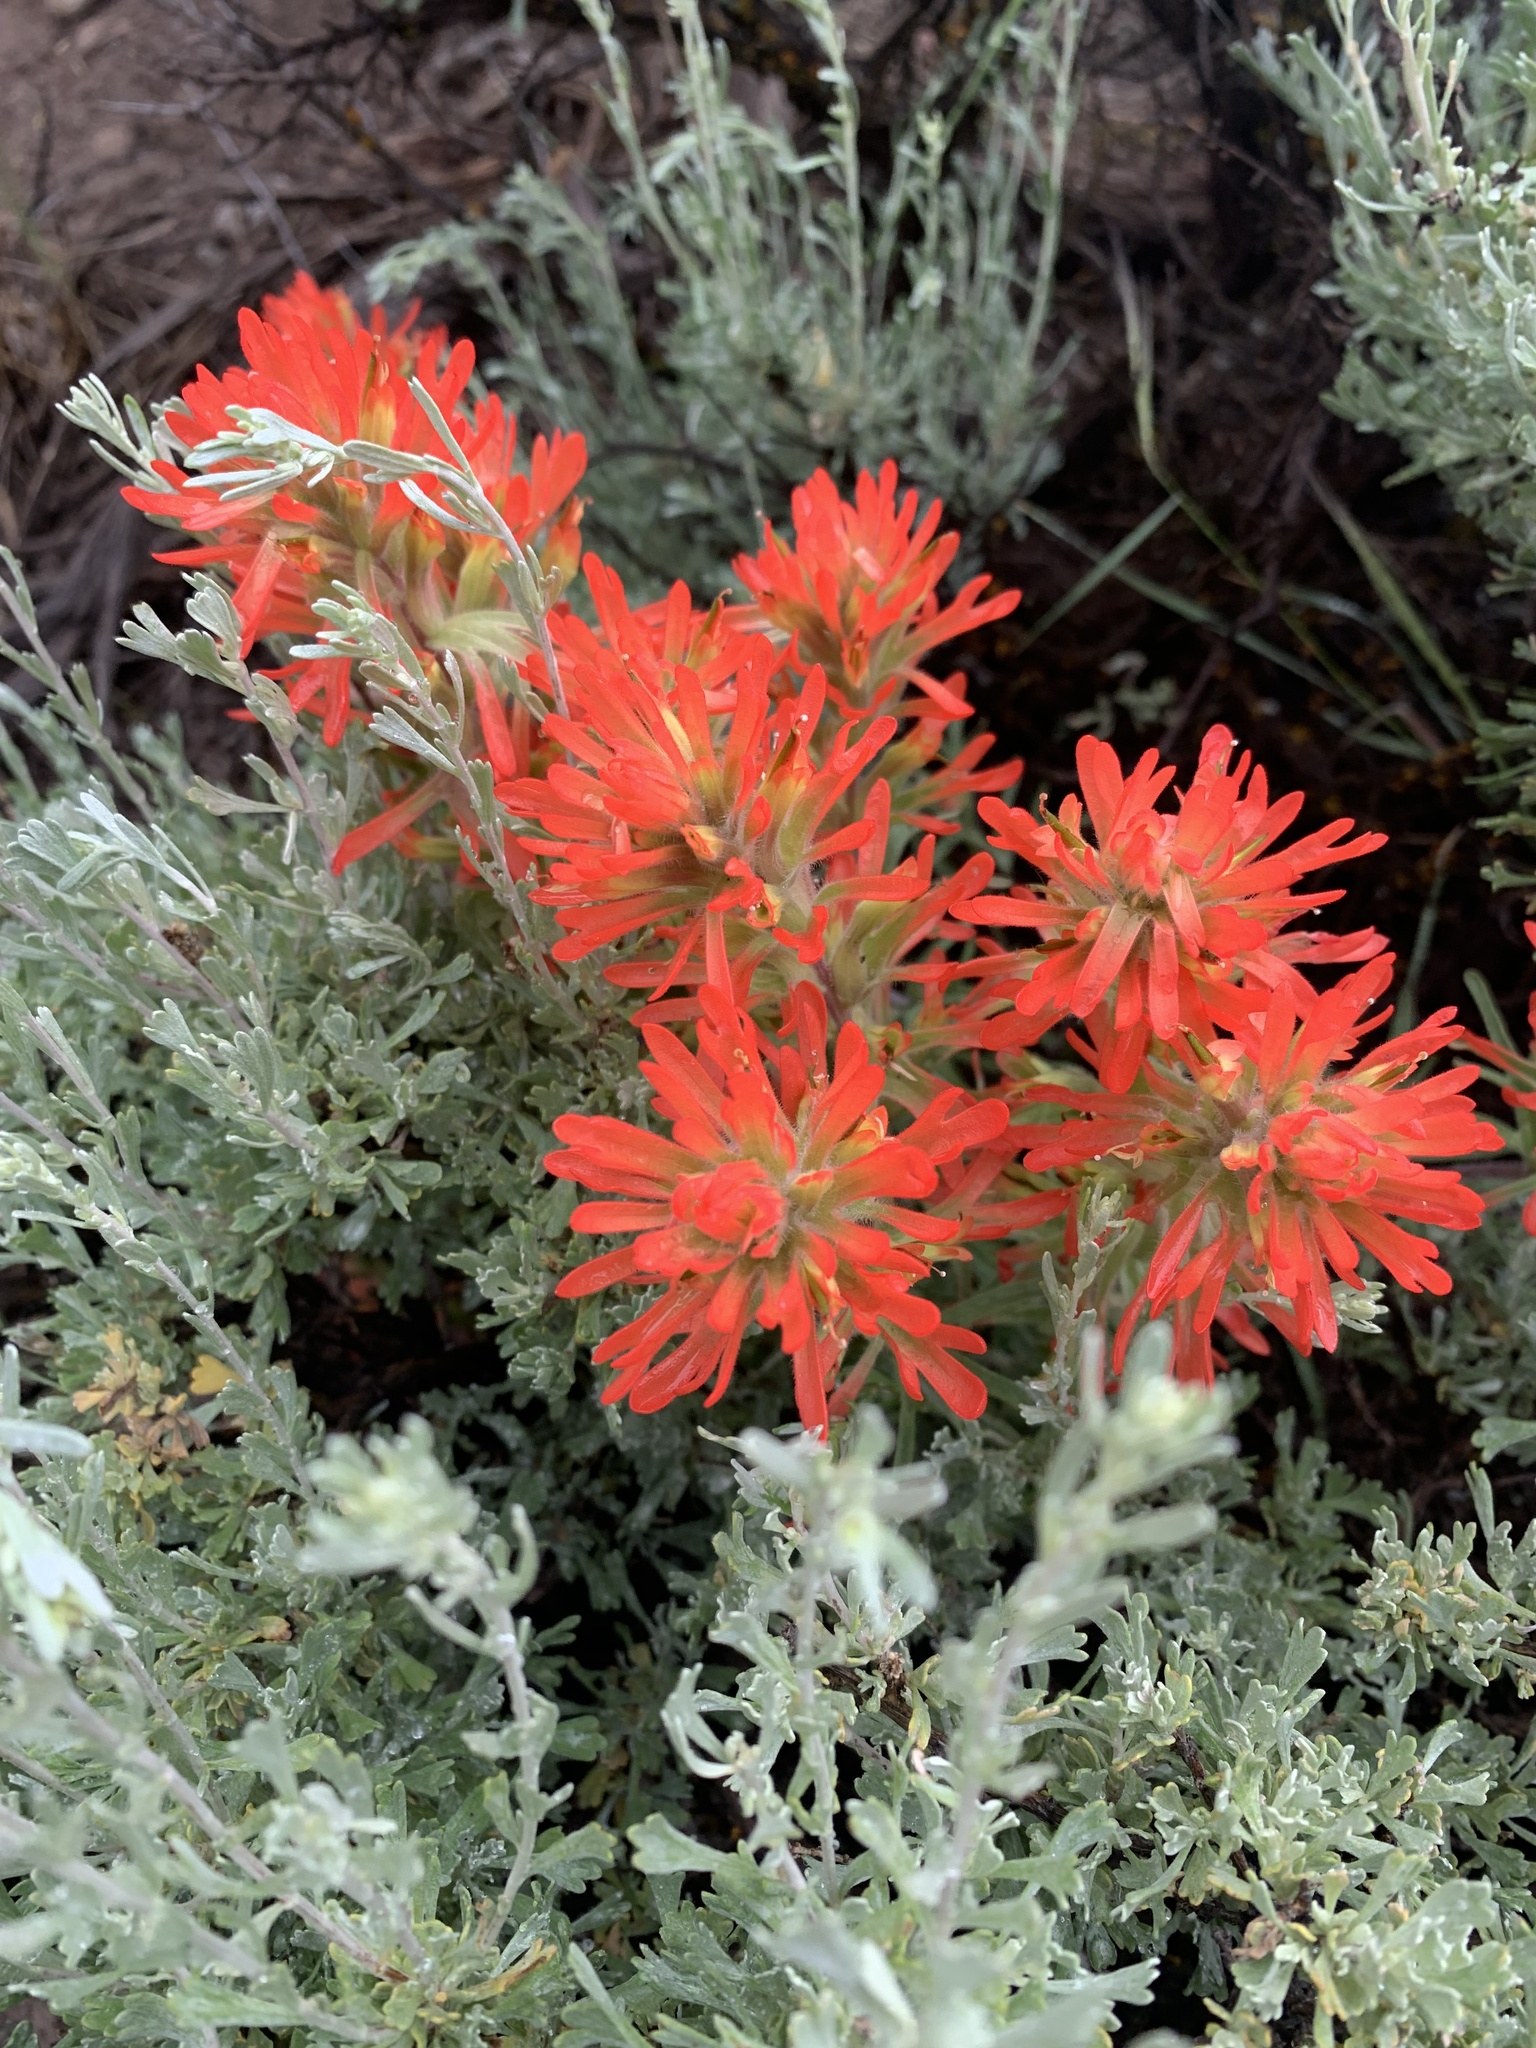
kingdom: Plantae
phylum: Tracheophyta
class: Magnoliopsida
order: Lamiales
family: Orobanchaceae
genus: Castilleja
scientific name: Castilleja chromosa
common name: Desert paintbrush
